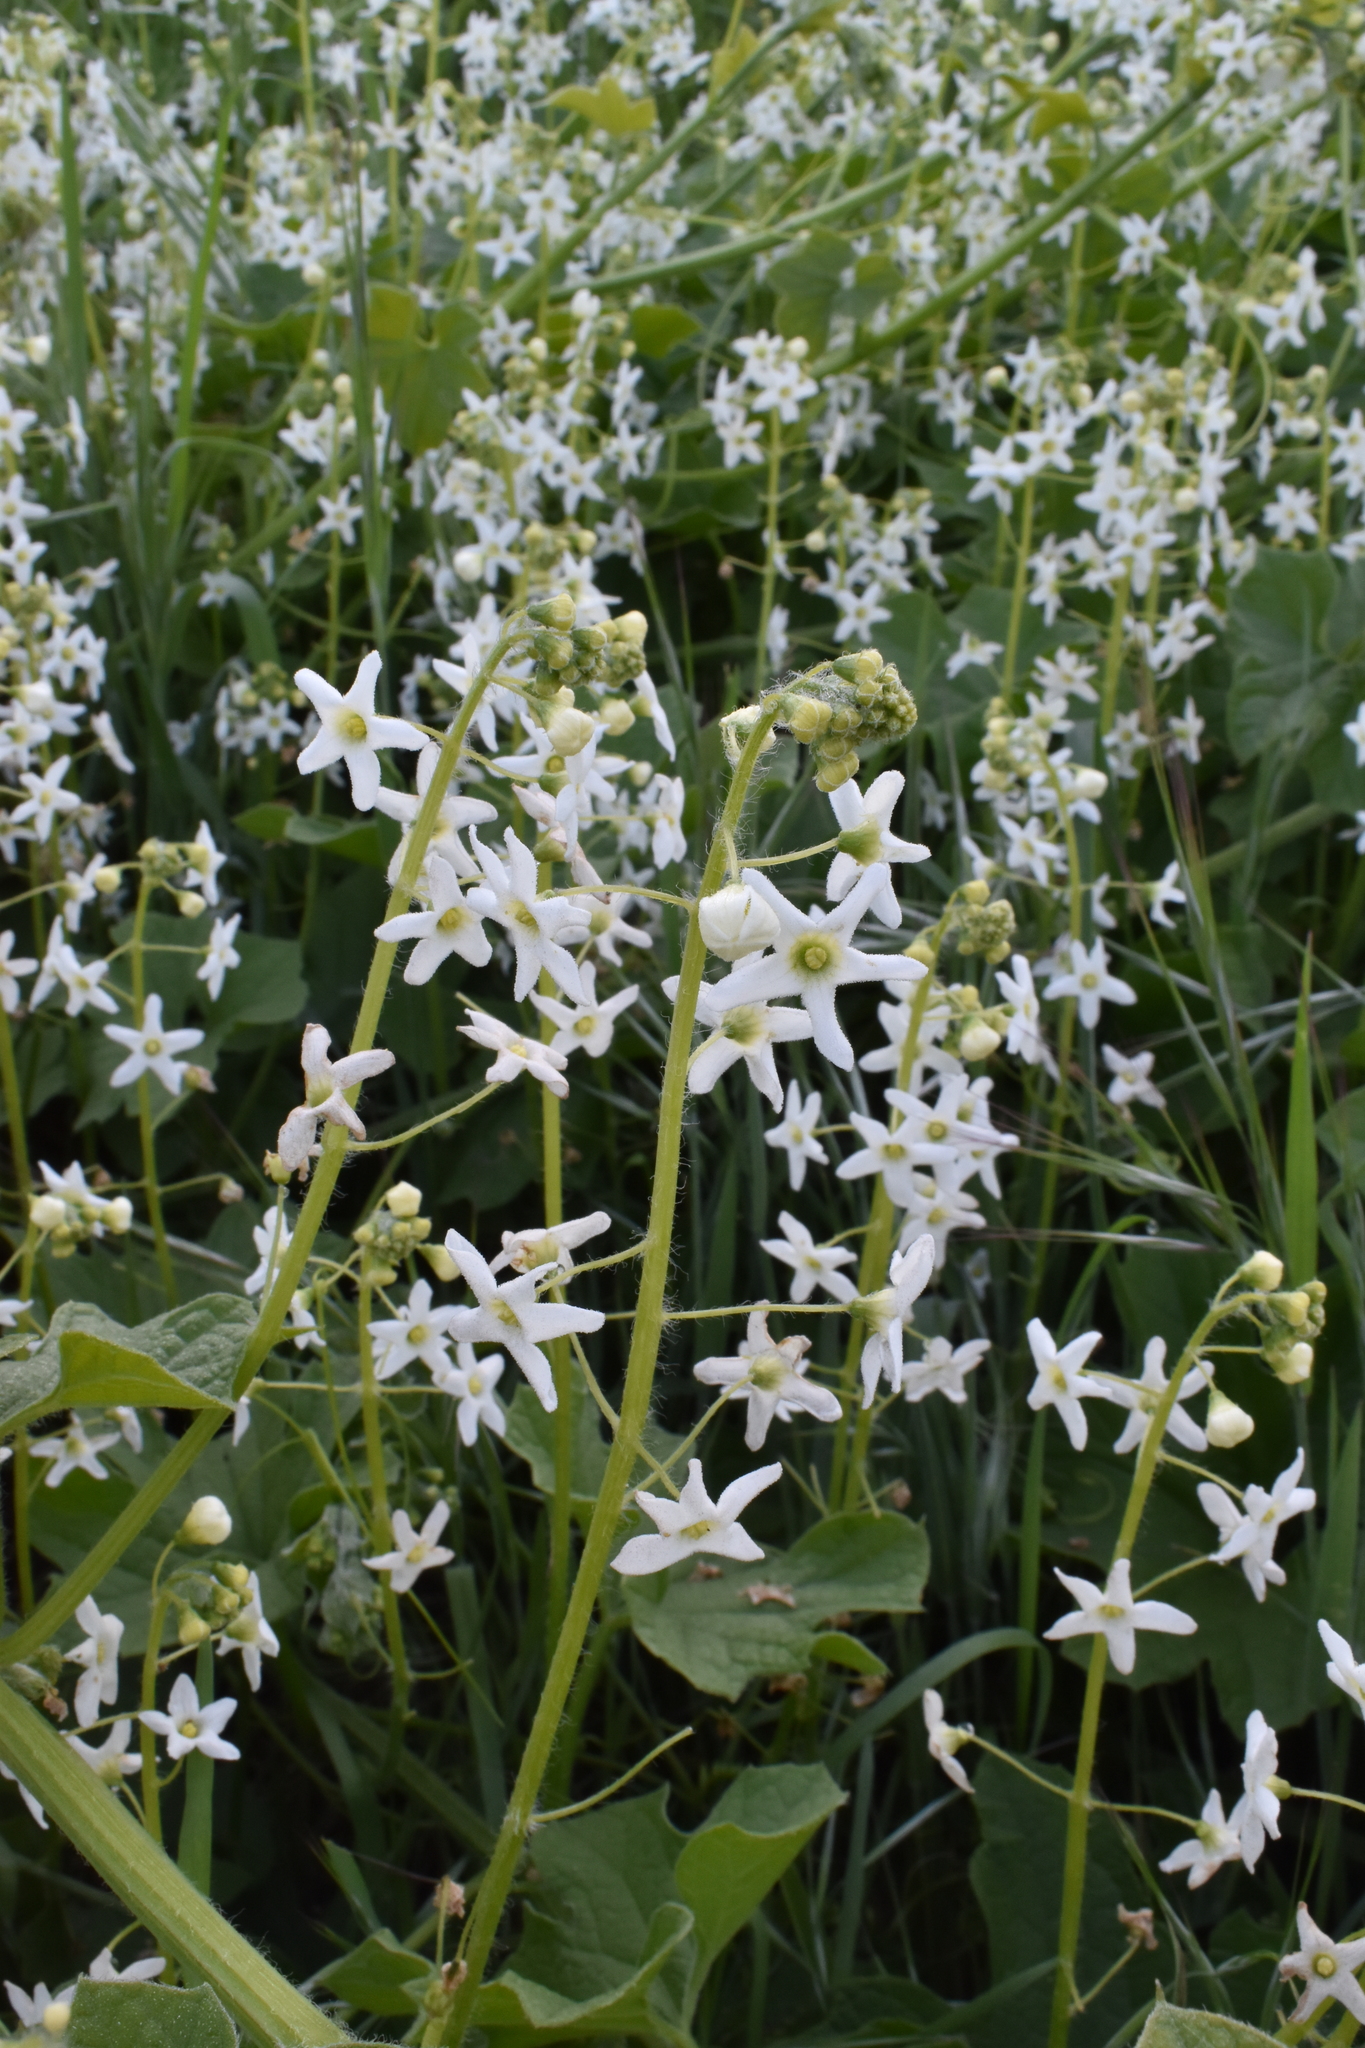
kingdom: Plantae
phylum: Tracheophyta
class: Magnoliopsida
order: Cucurbitales
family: Cucurbitaceae
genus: Marah
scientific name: Marah oregana
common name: Coastal manroot
